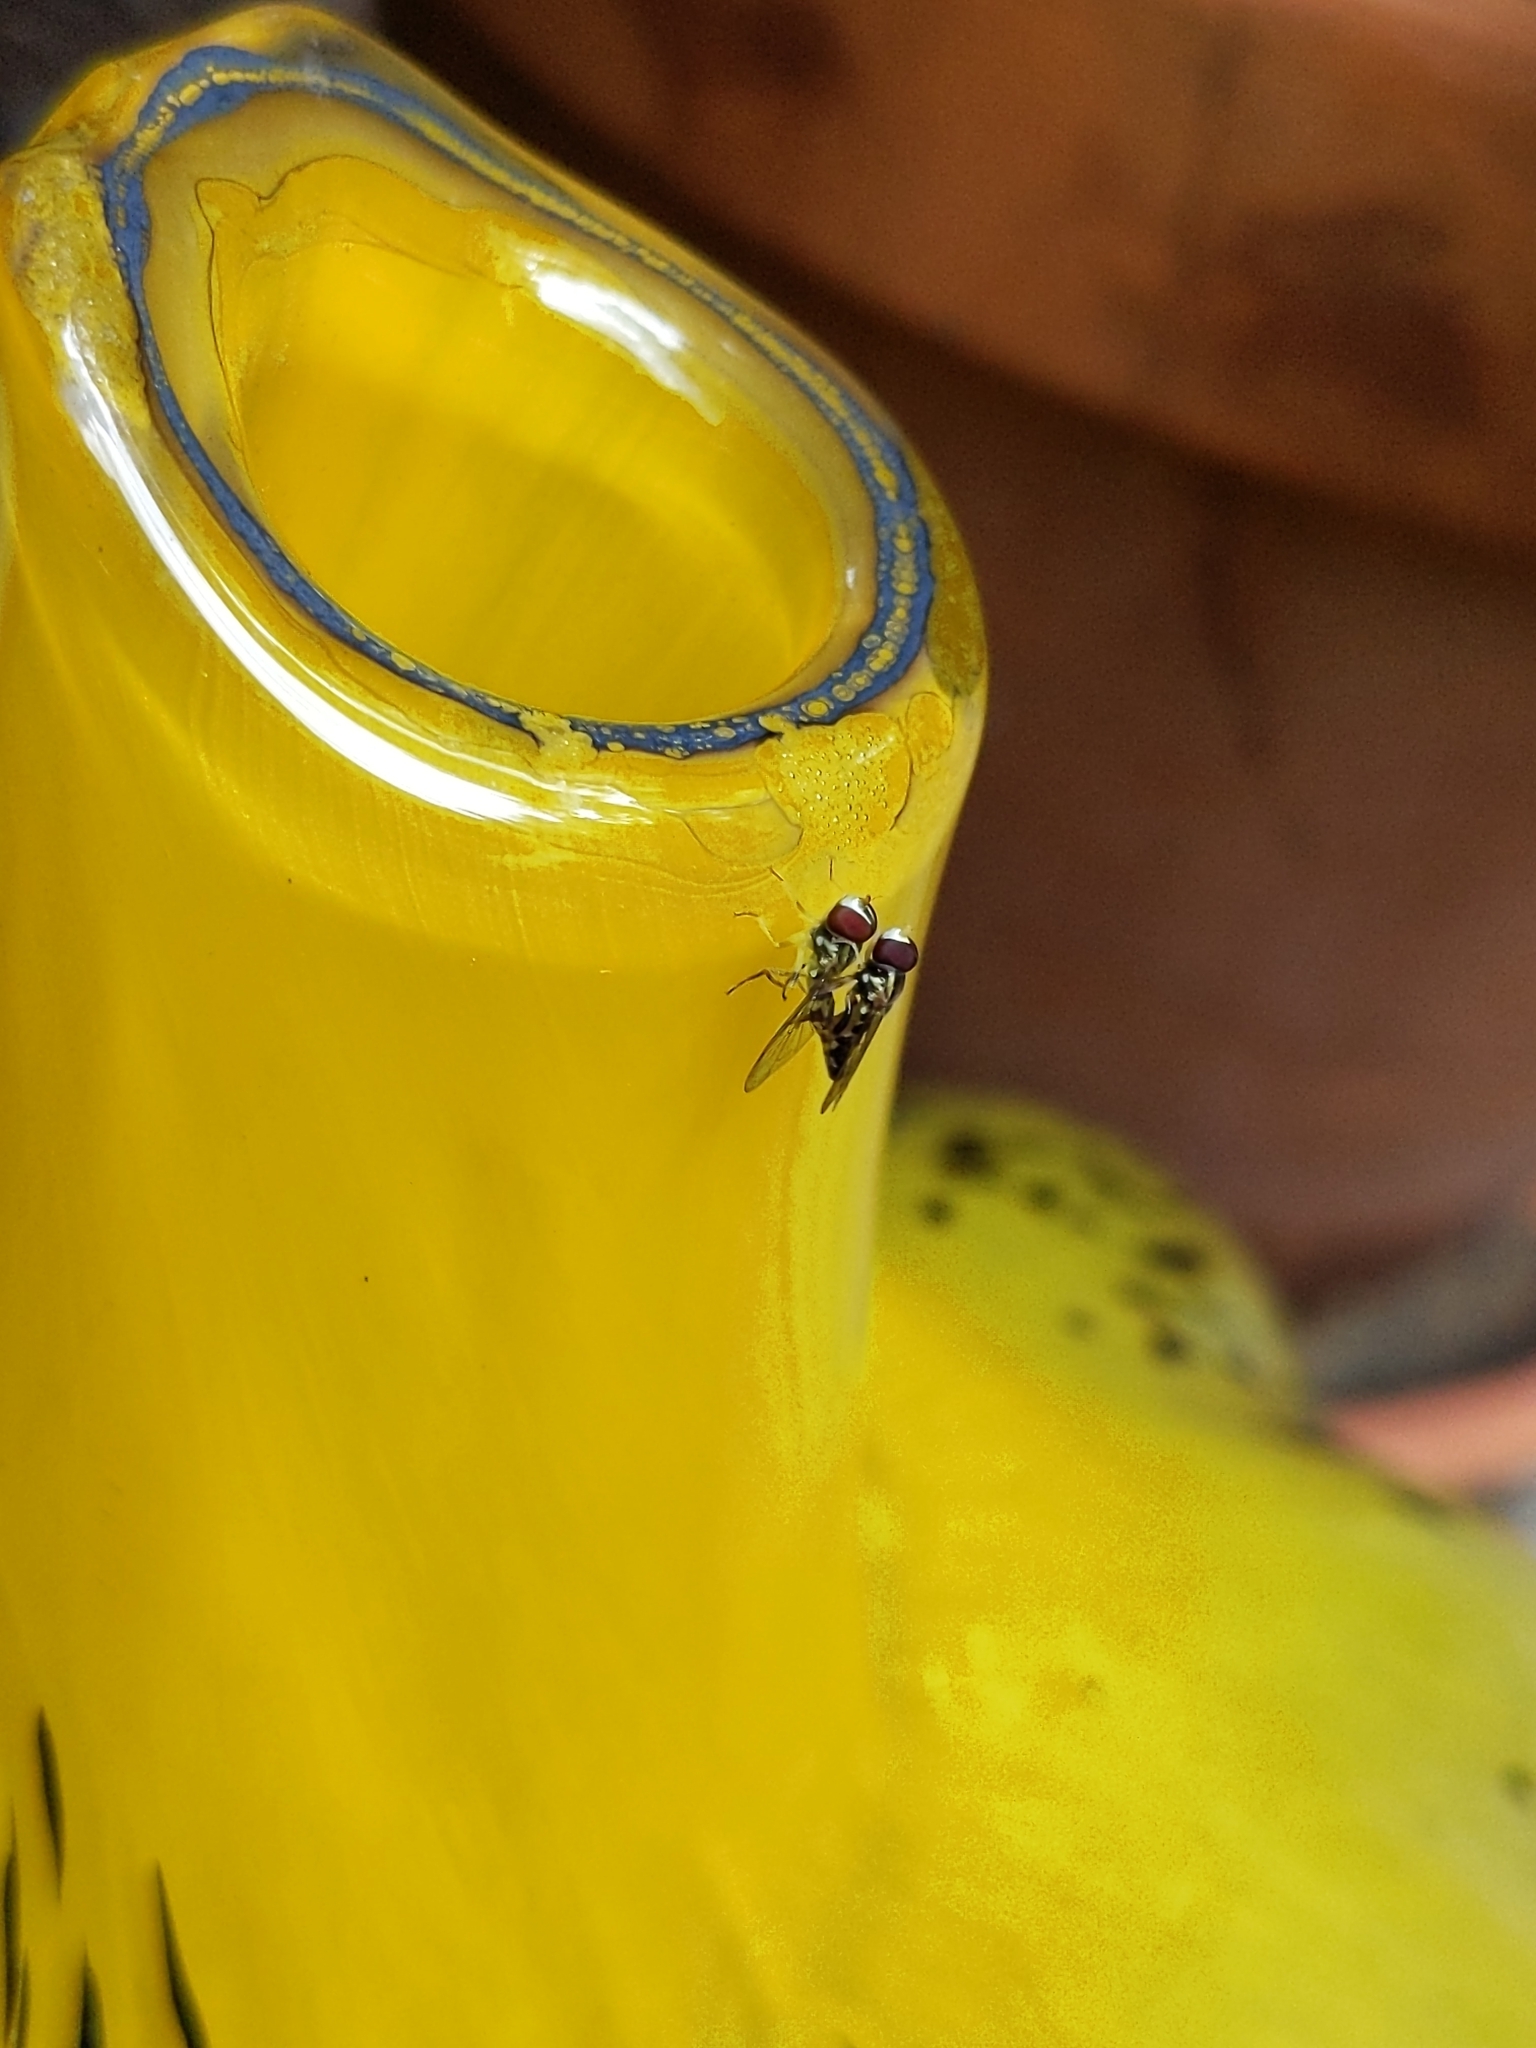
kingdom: Animalia
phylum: Arthropoda
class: Insecta
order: Diptera
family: Syrphidae
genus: Toxomerus
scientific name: Toxomerus geminatus
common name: Eastern calligrapher
